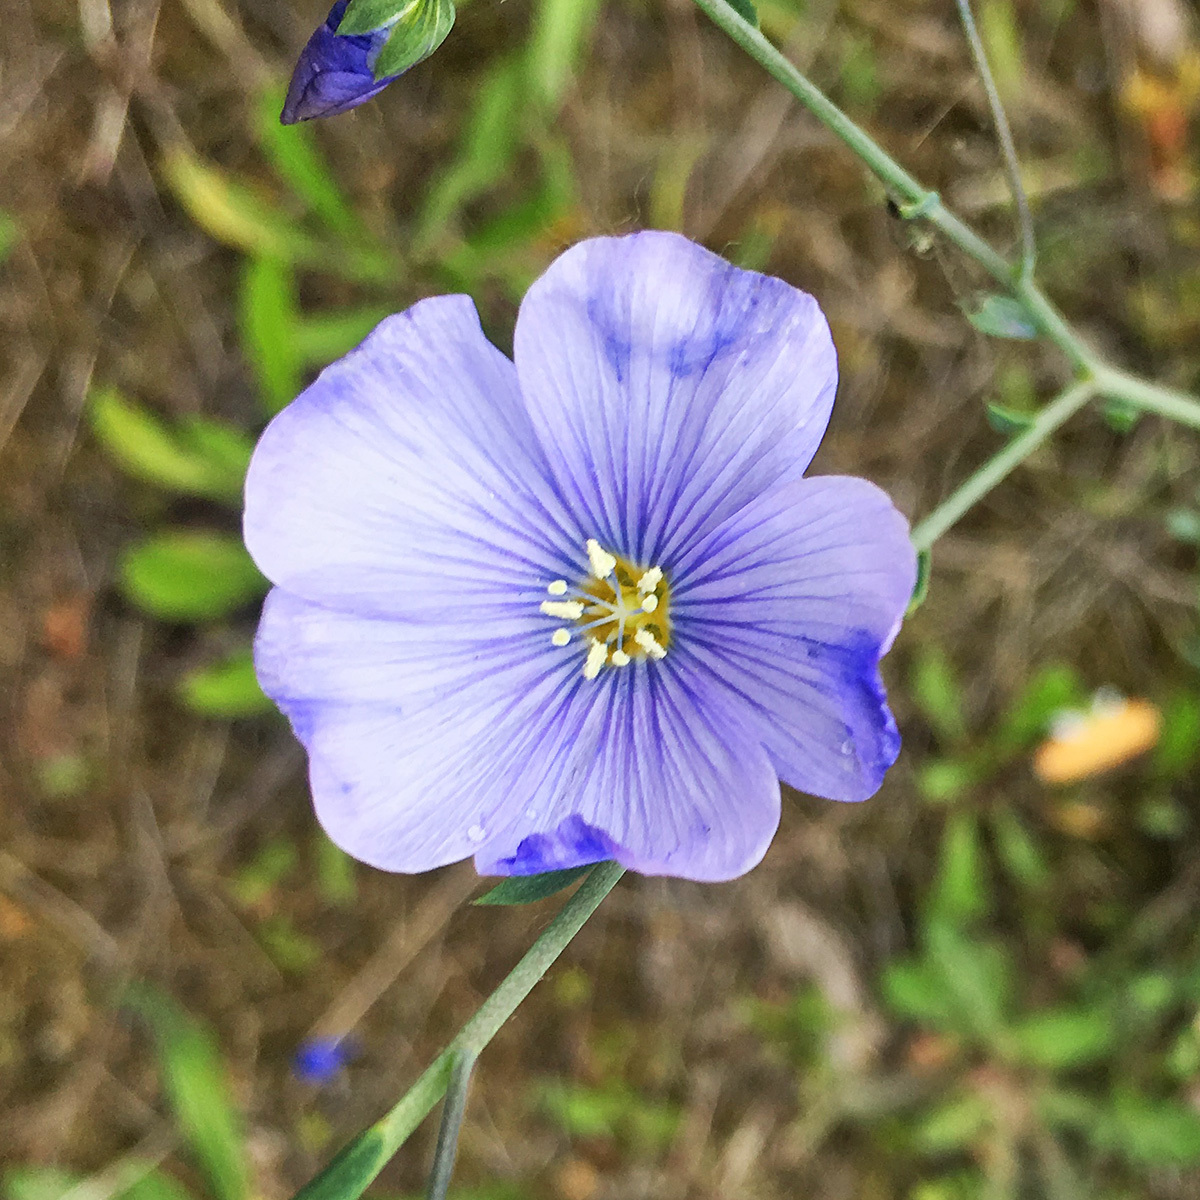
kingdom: Plantae
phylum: Tracheophyta
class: Magnoliopsida
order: Malpighiales
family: Linaceae
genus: Linum
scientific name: Linum perenne
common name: Blue flax
